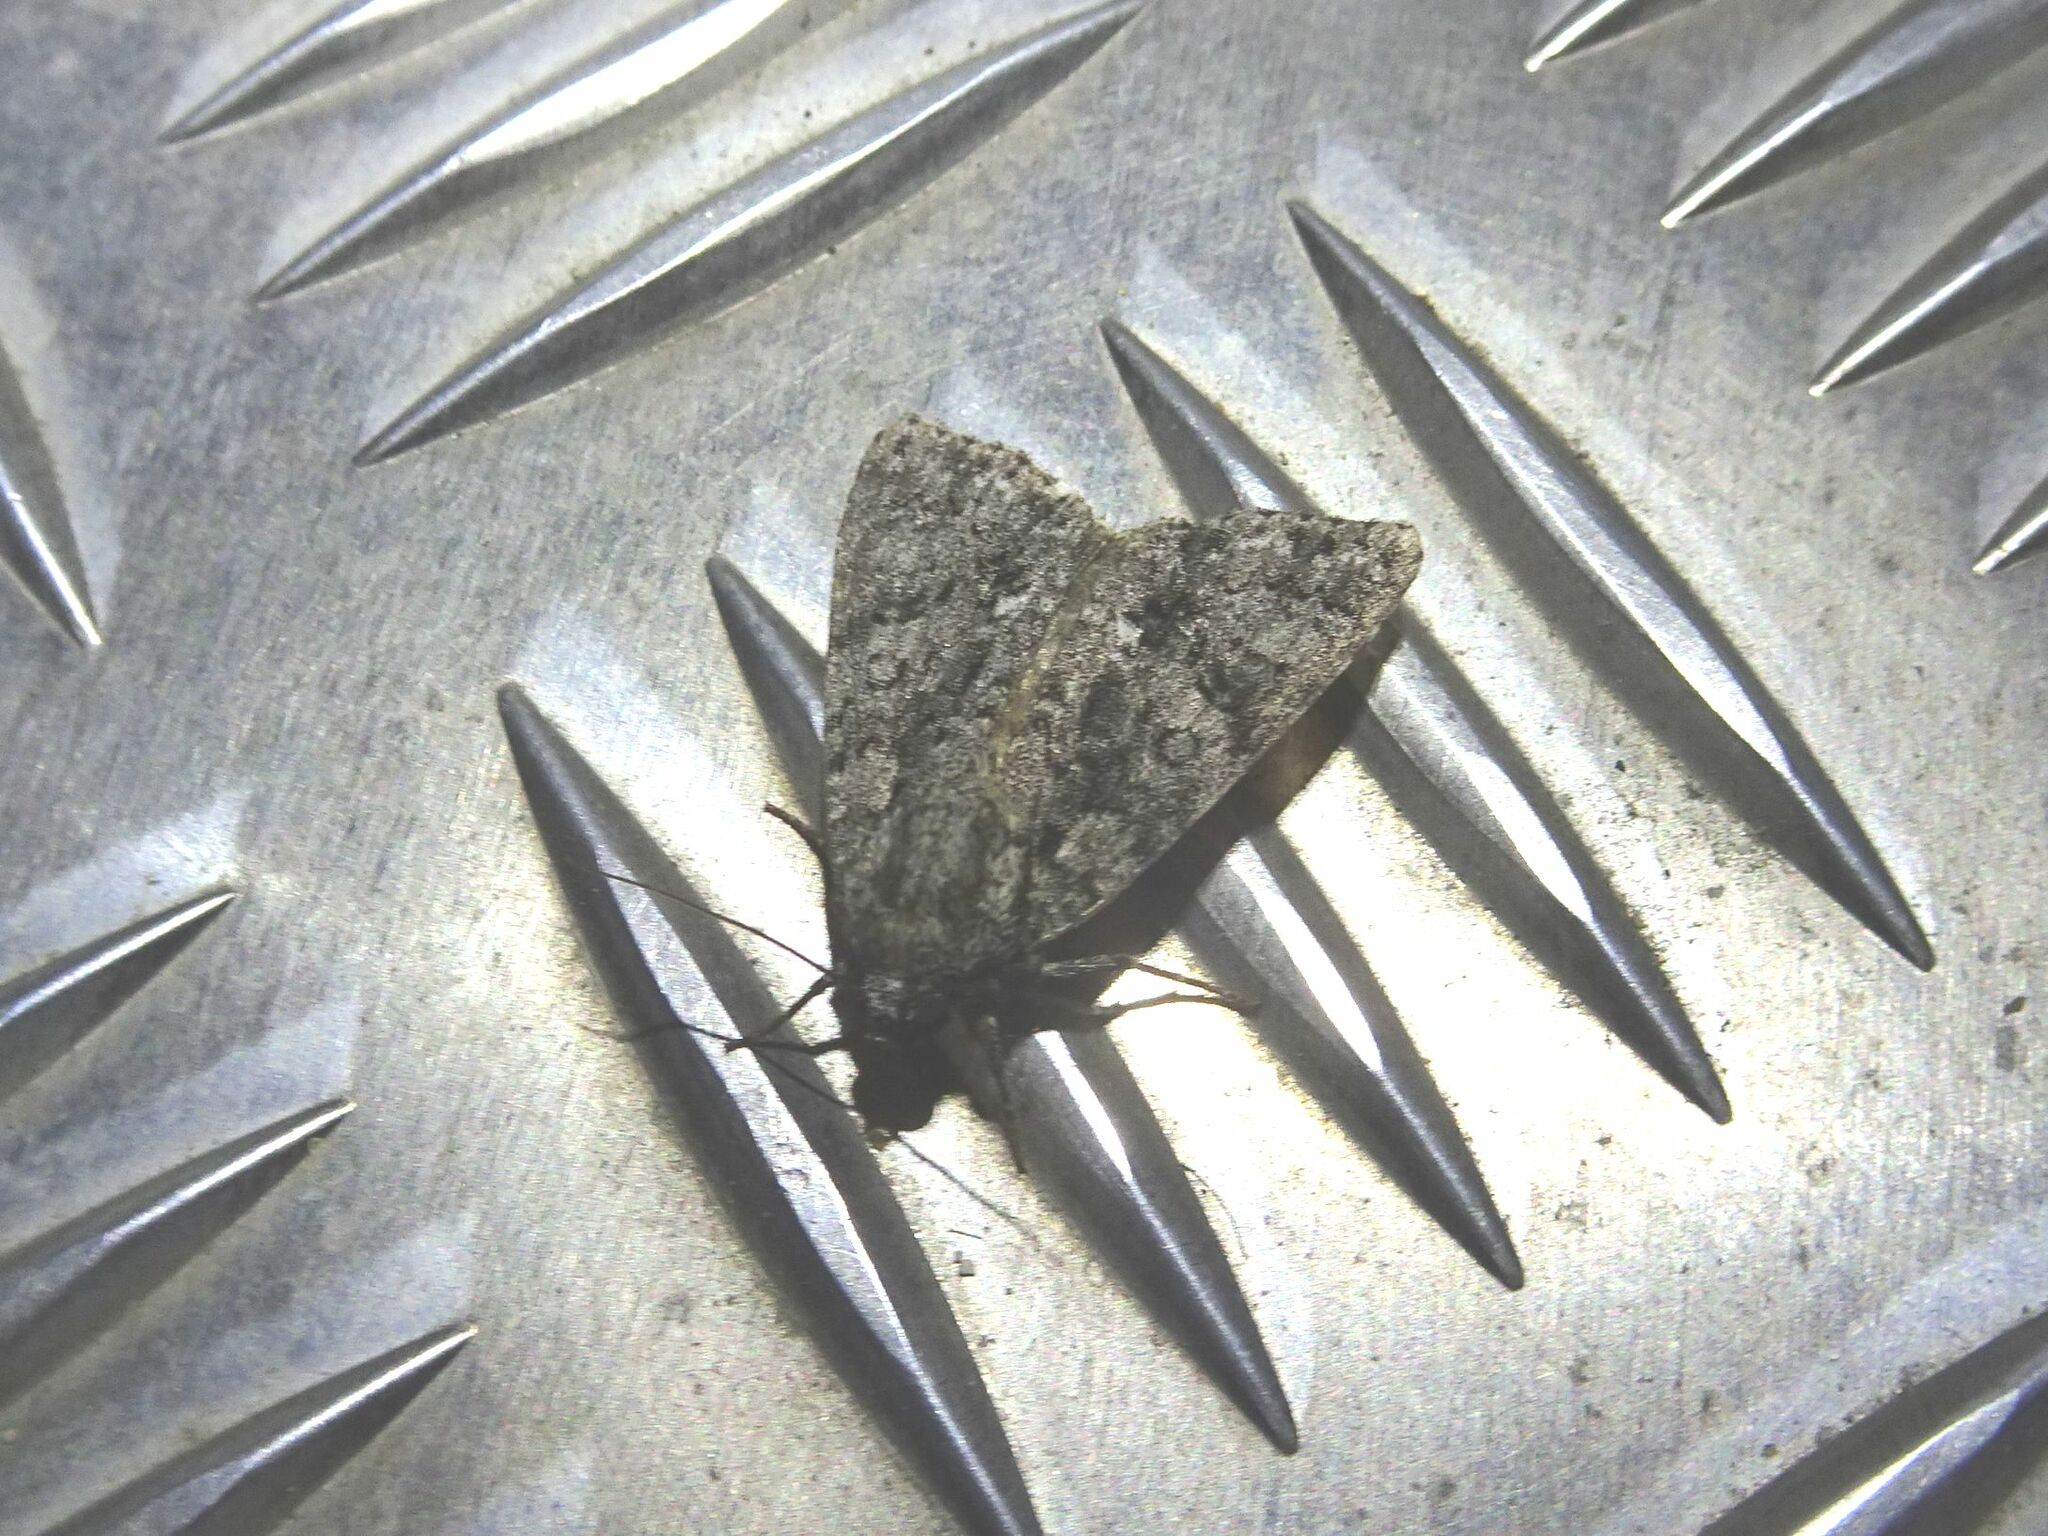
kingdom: Animalia
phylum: Arthropoda
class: Insecta
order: Lepidoptera
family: Noctuidae
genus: Acronicta
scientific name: Acronicta rumicis
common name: Knot grass
